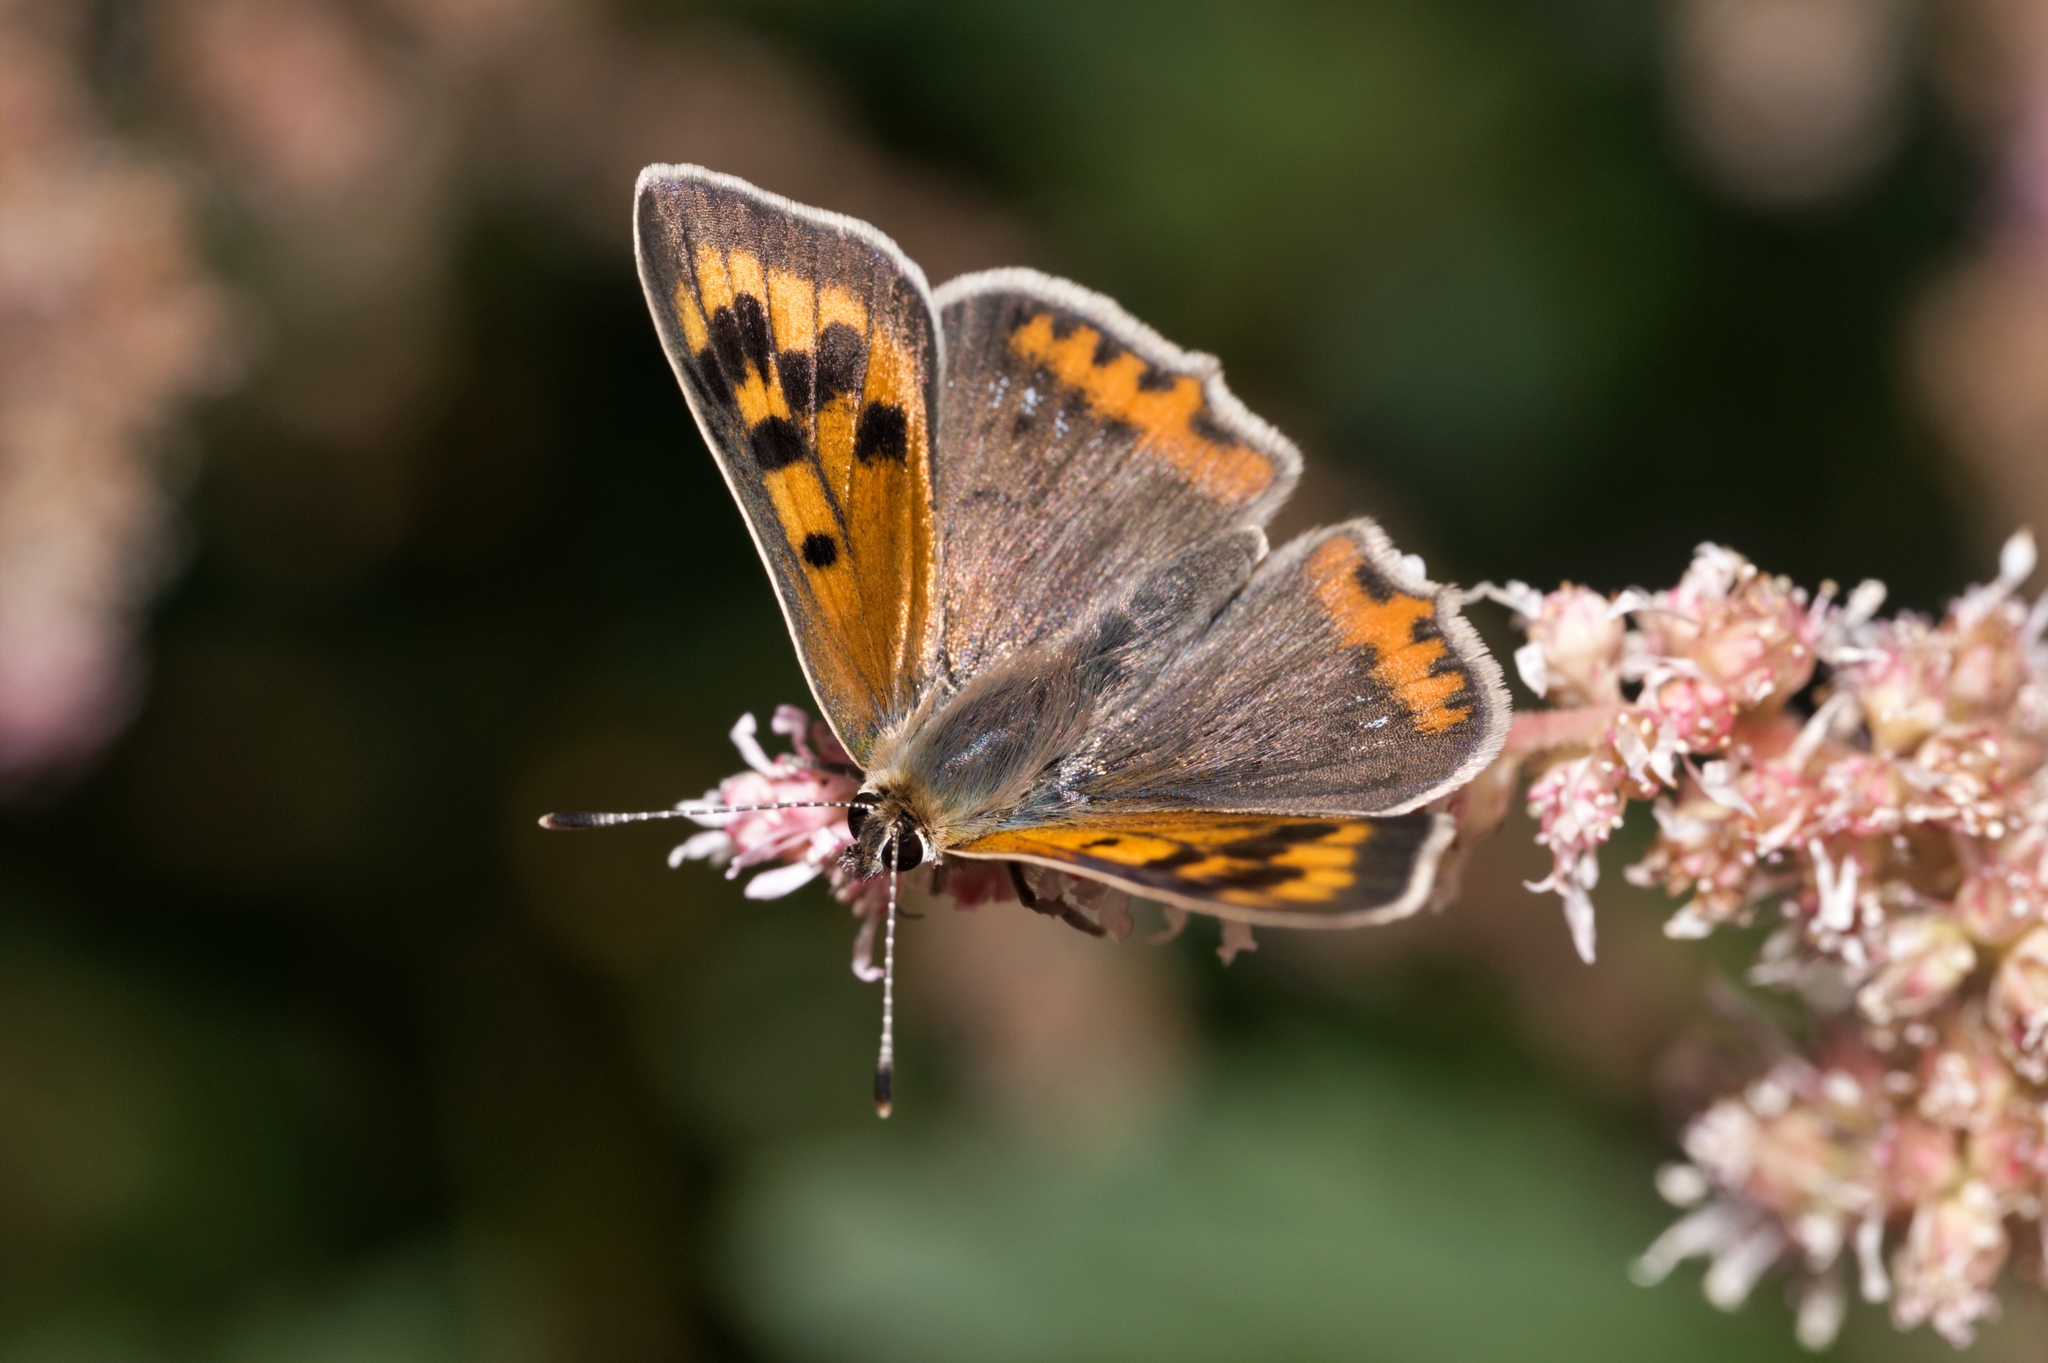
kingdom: Animalia
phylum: Arthropoda
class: Insecta
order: Lepidoptera
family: Lycaenidae
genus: Lycaena
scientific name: Lycaena phlaeas
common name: Small copper
